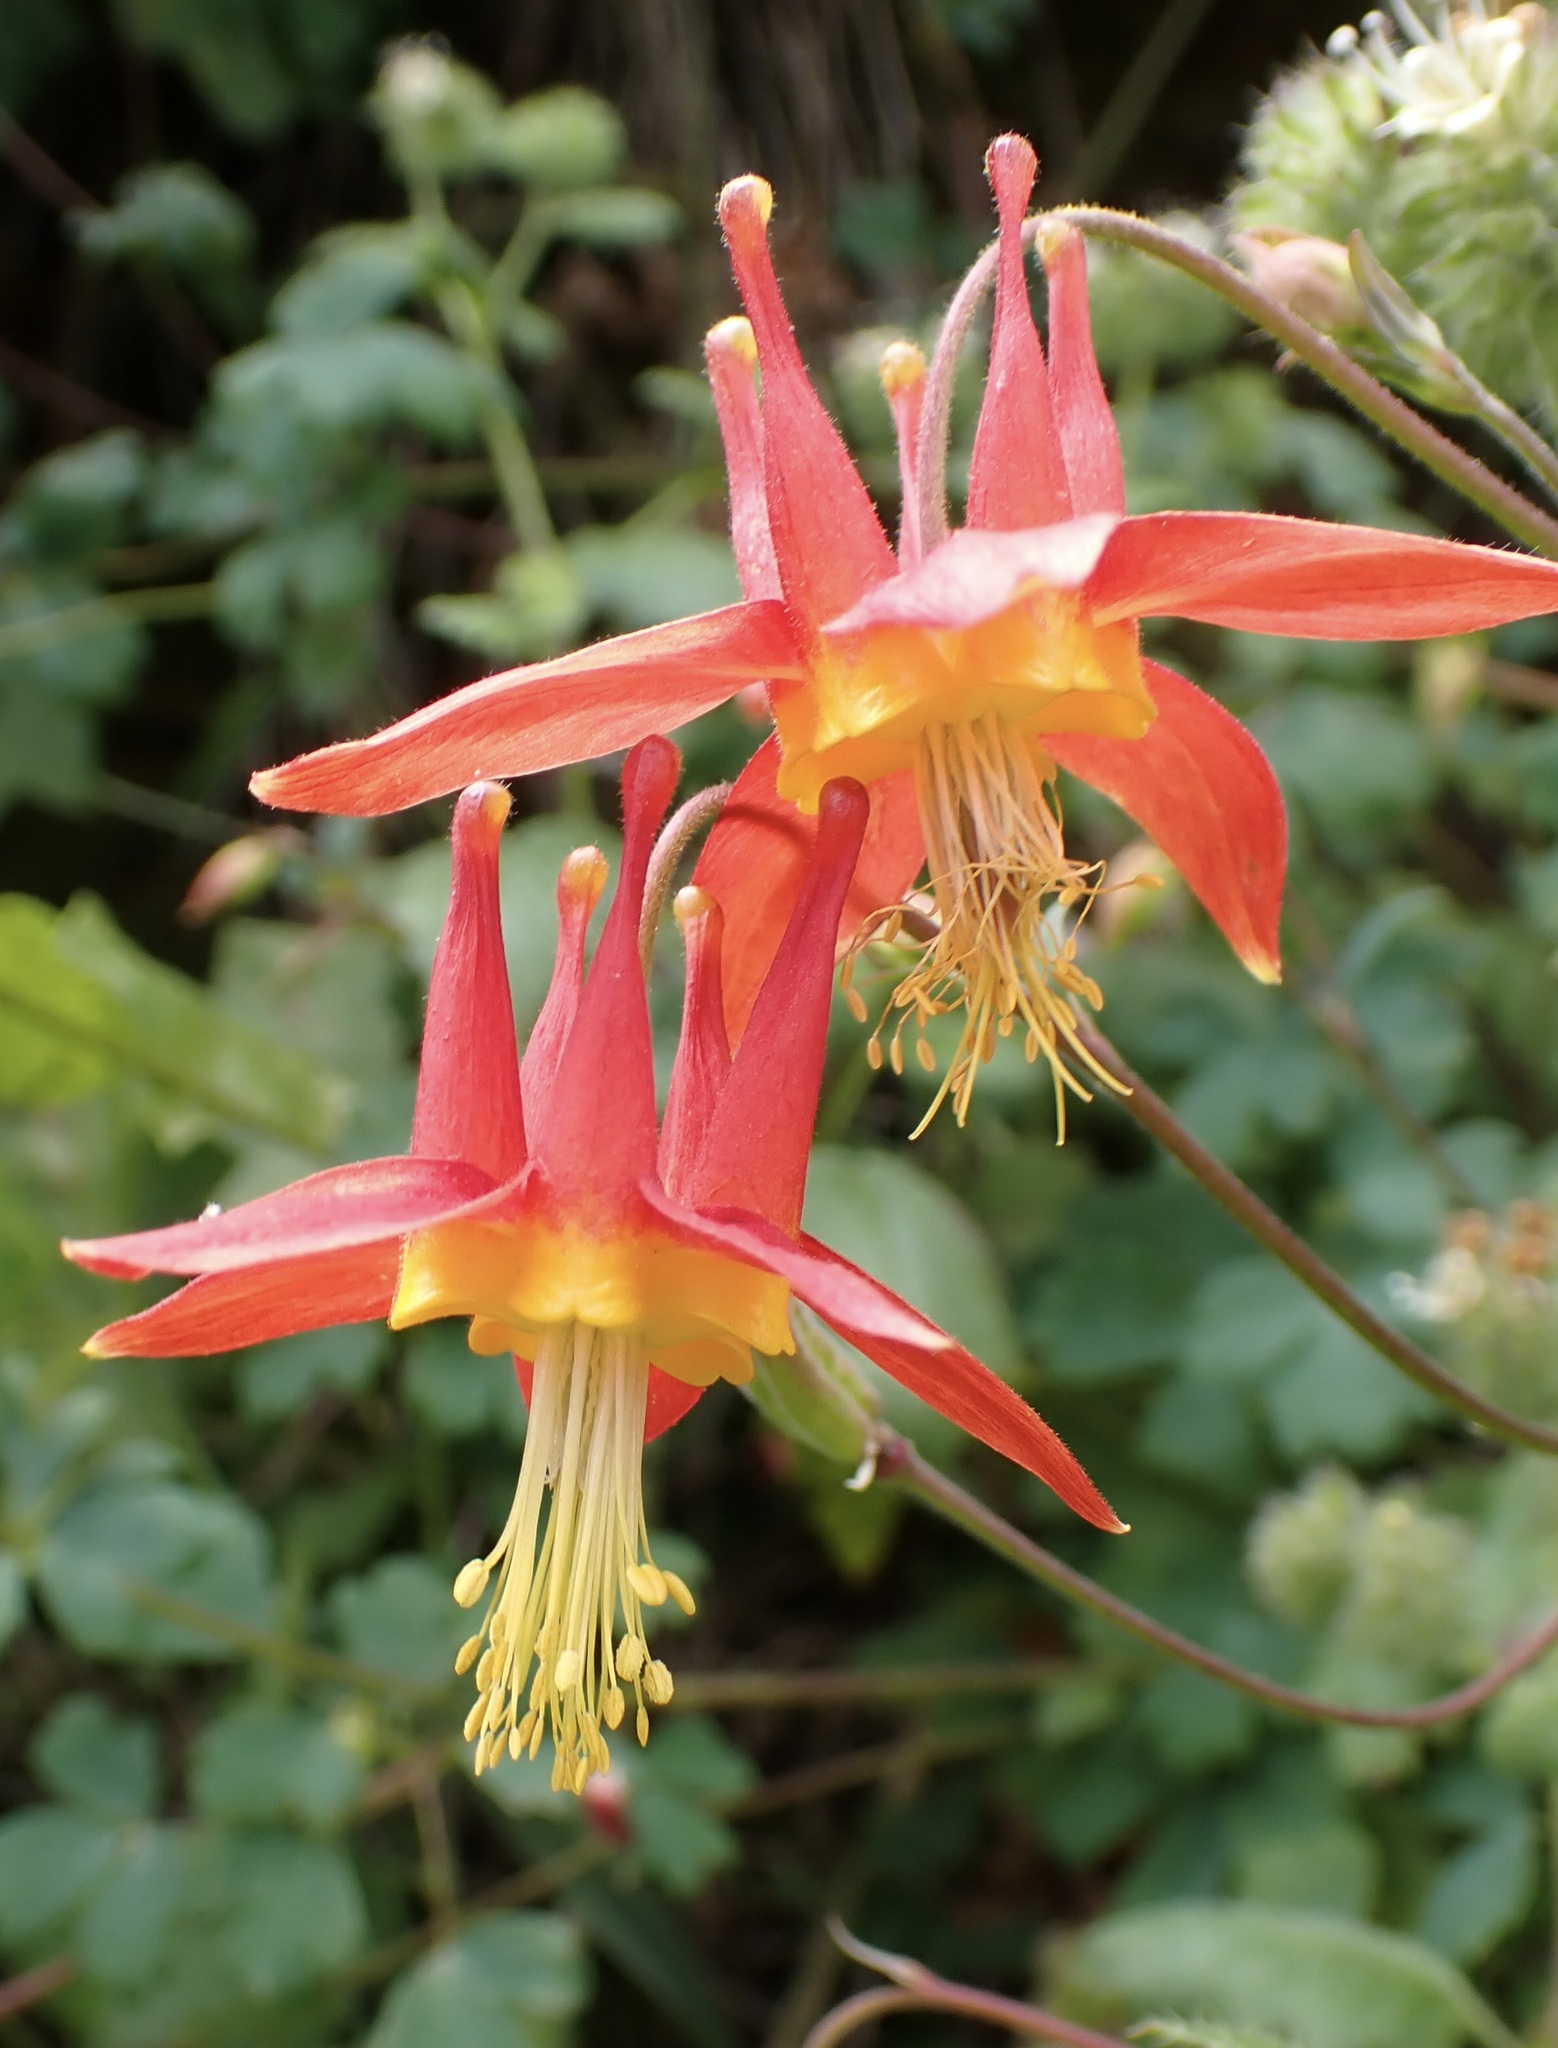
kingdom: Plantae
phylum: Tracheophyta
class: Magnoliopsida
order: Ranunculales
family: Ranunculaceae
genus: Aquilegia
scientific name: Aquilegia formosa
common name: Sitka columbine
